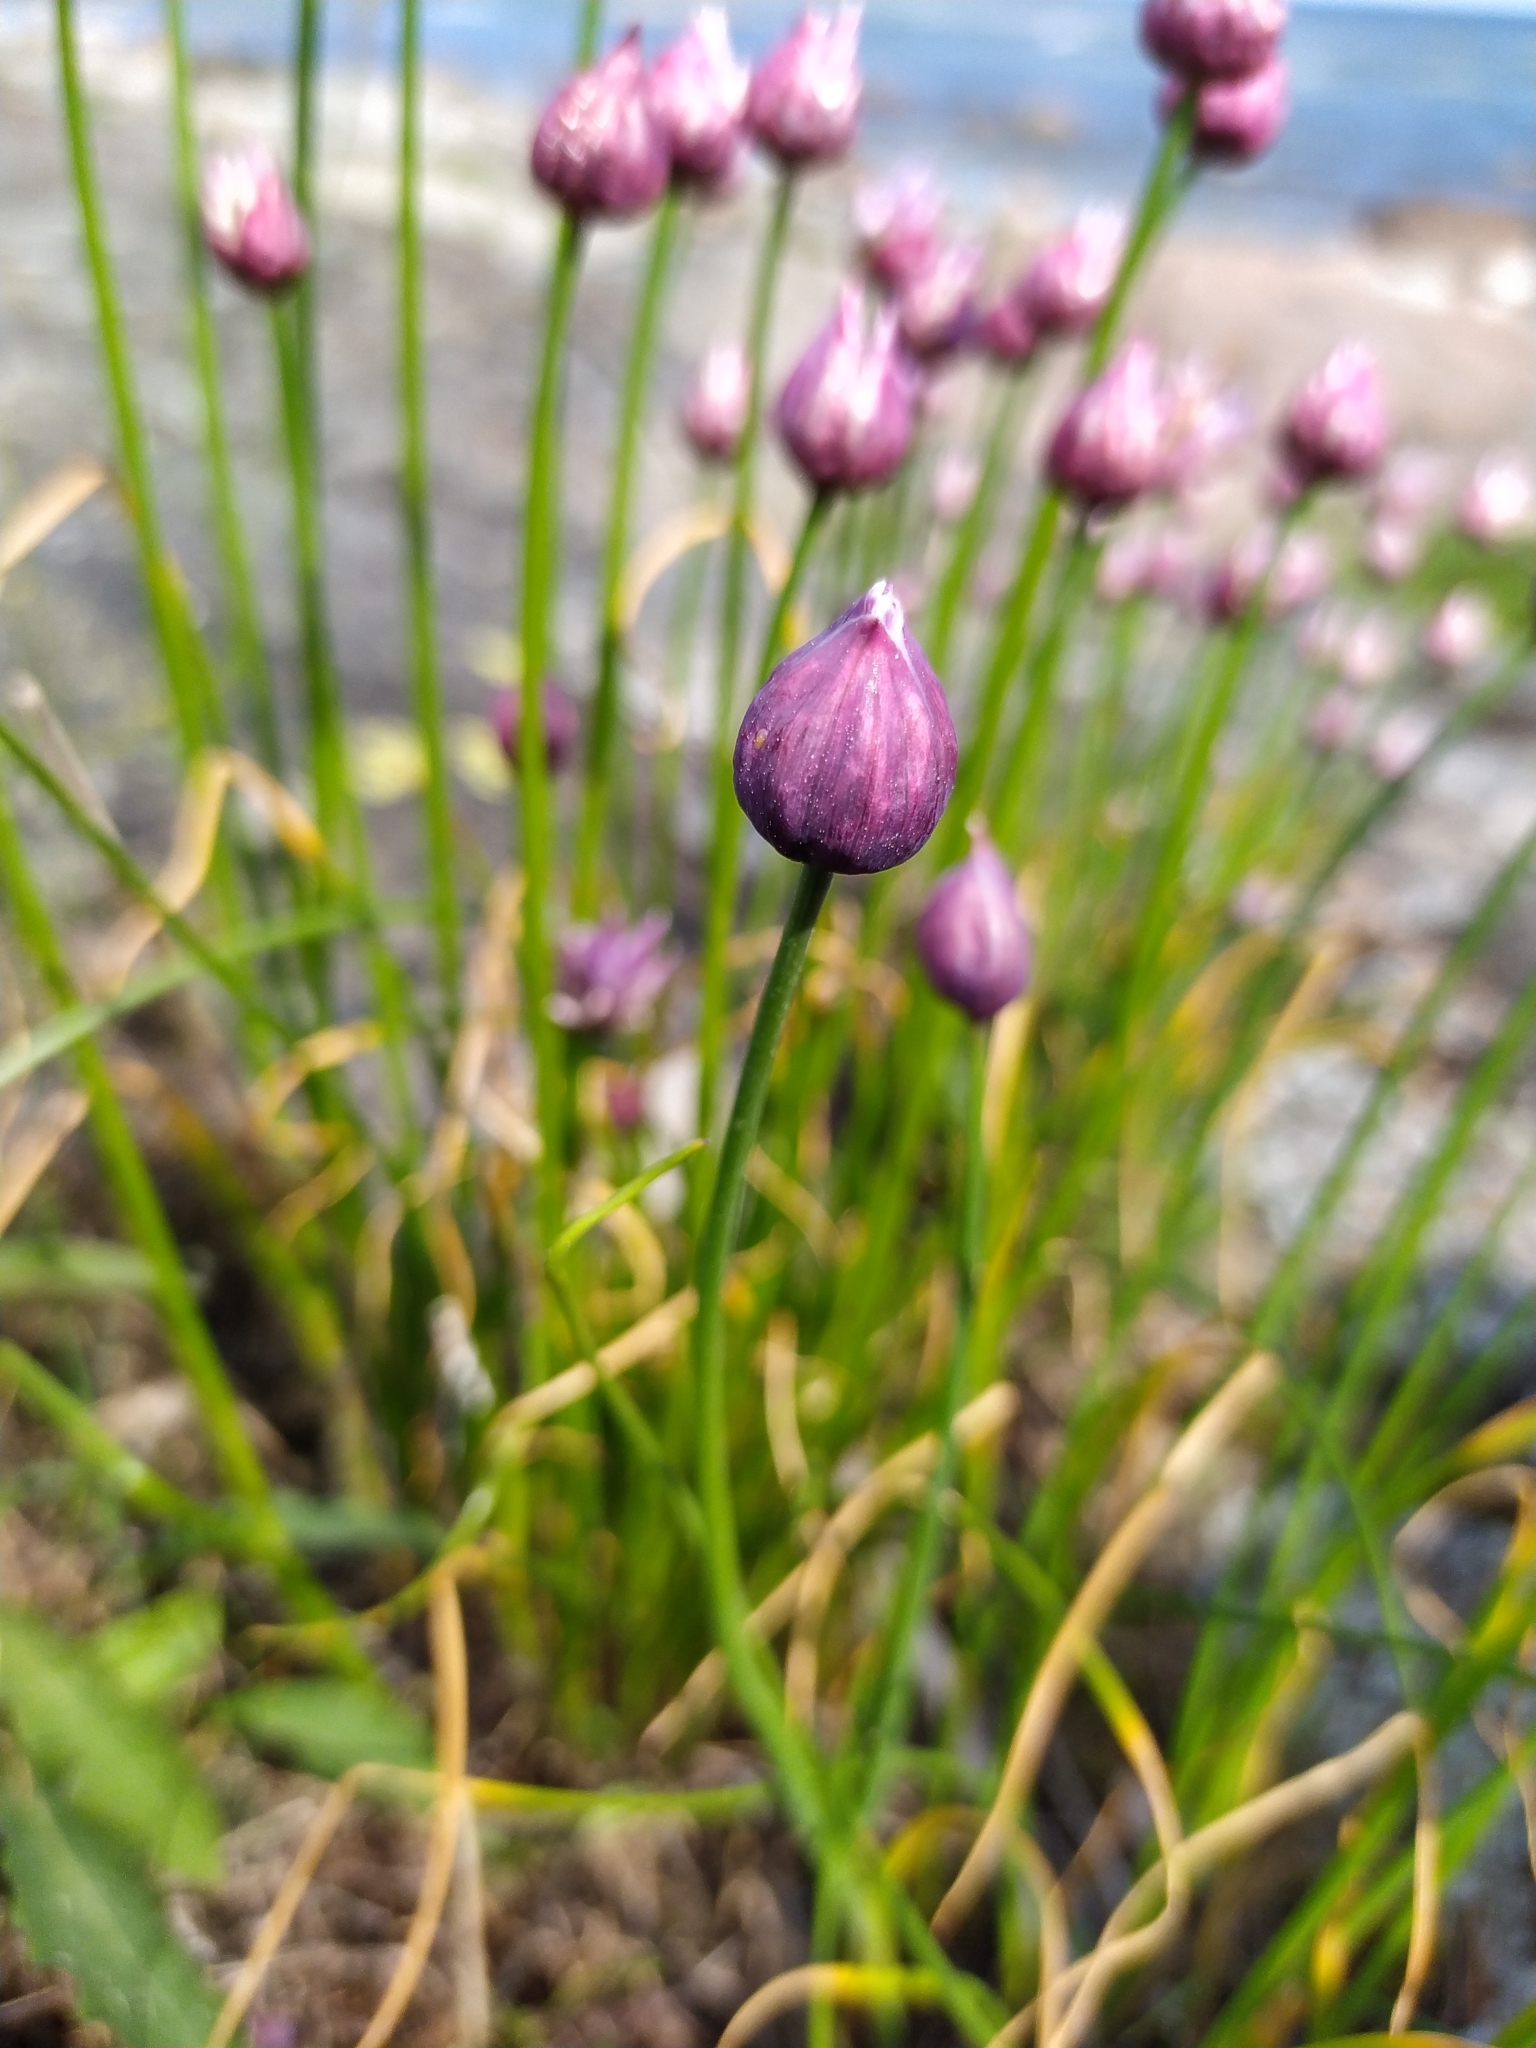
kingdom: Plantae
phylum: Tracheophyta
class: Liliopsida
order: Asparagales
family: Amaryllidaceae
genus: Allium
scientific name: Allium schoenoprasum
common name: Chives
